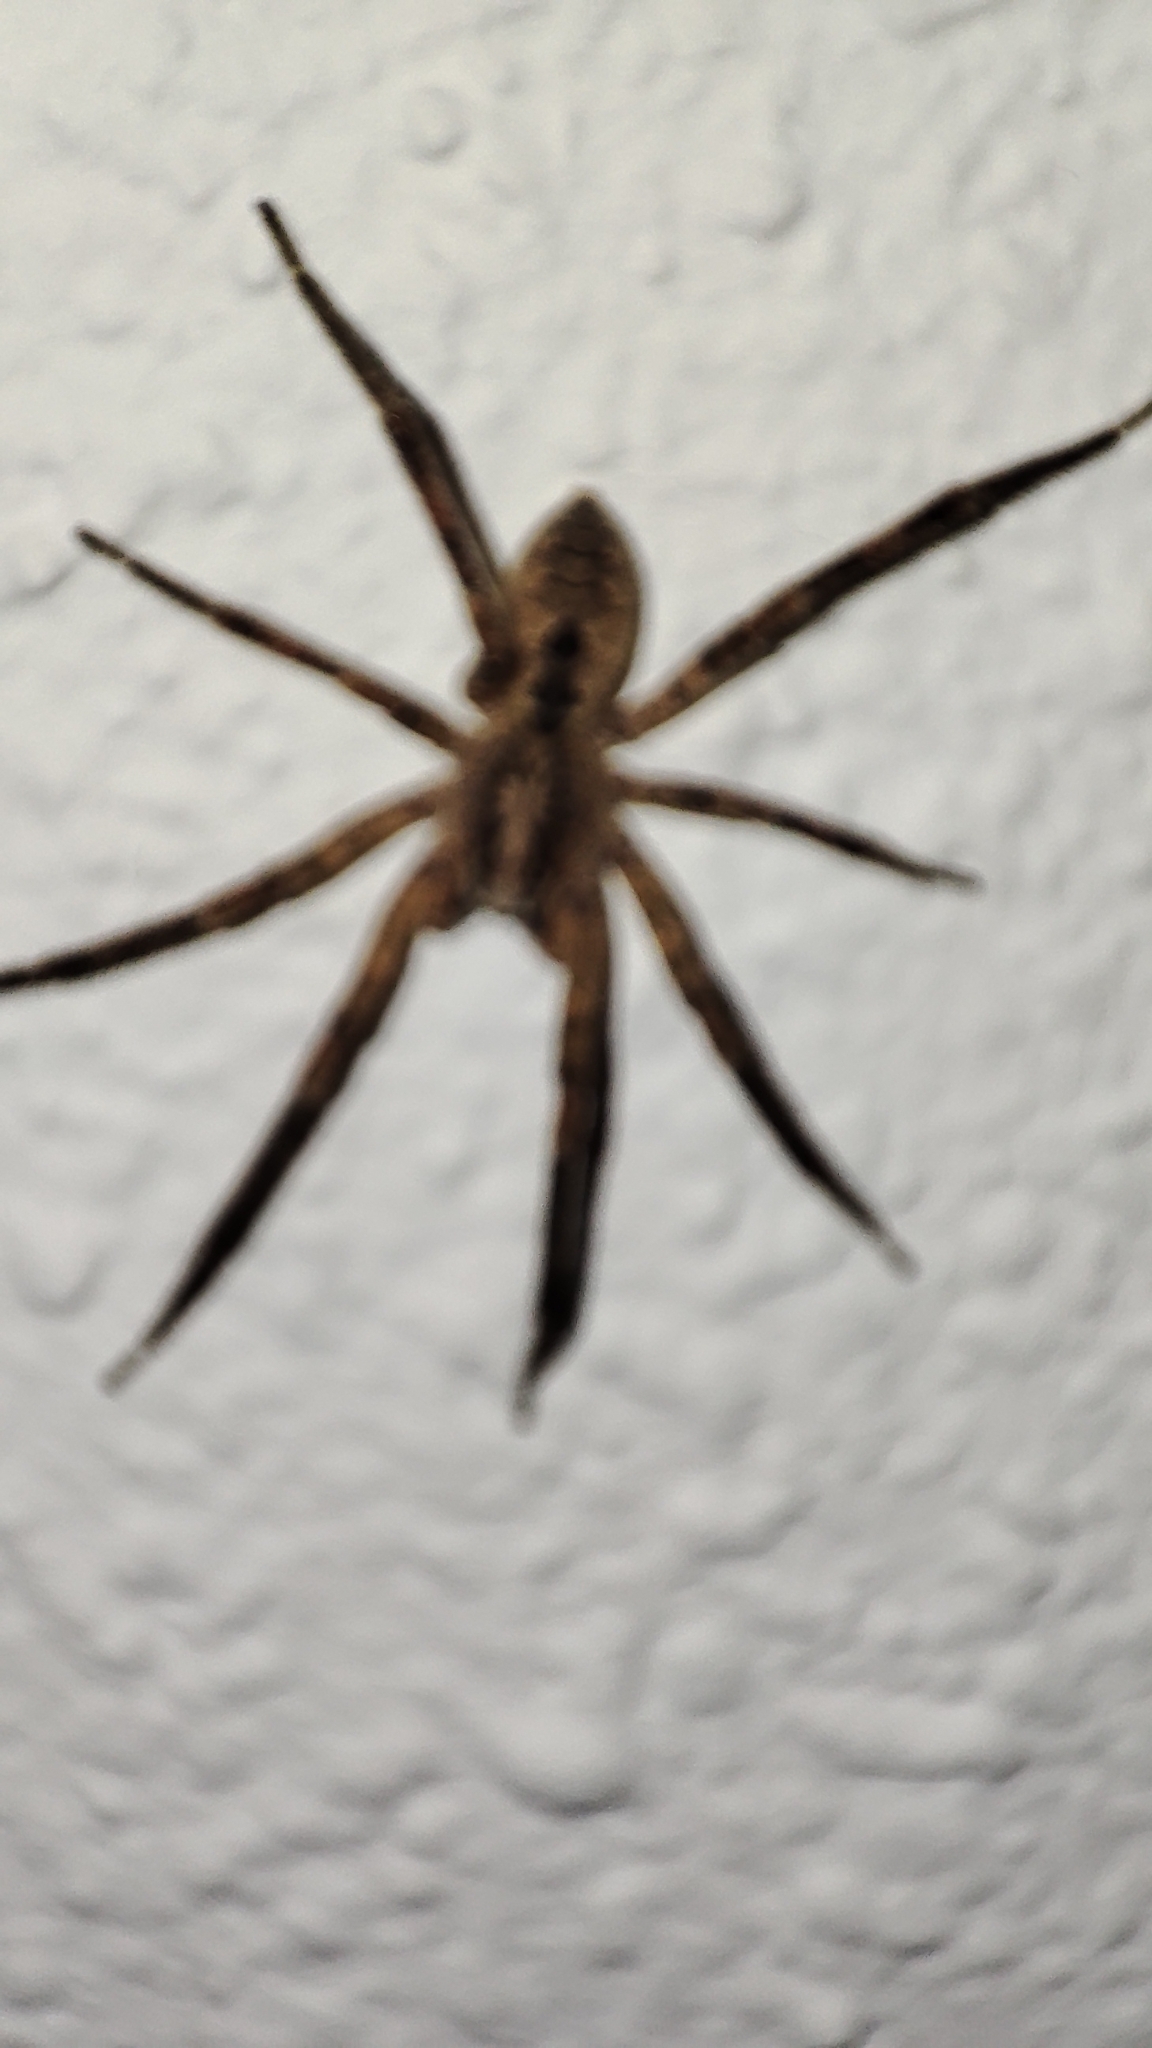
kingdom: Animalia
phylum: Arthropoda
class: Arachnida
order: Araneae
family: Zoropsidae
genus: Zoropsis
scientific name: Zoropsis spinimana
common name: Zoropsid spider
